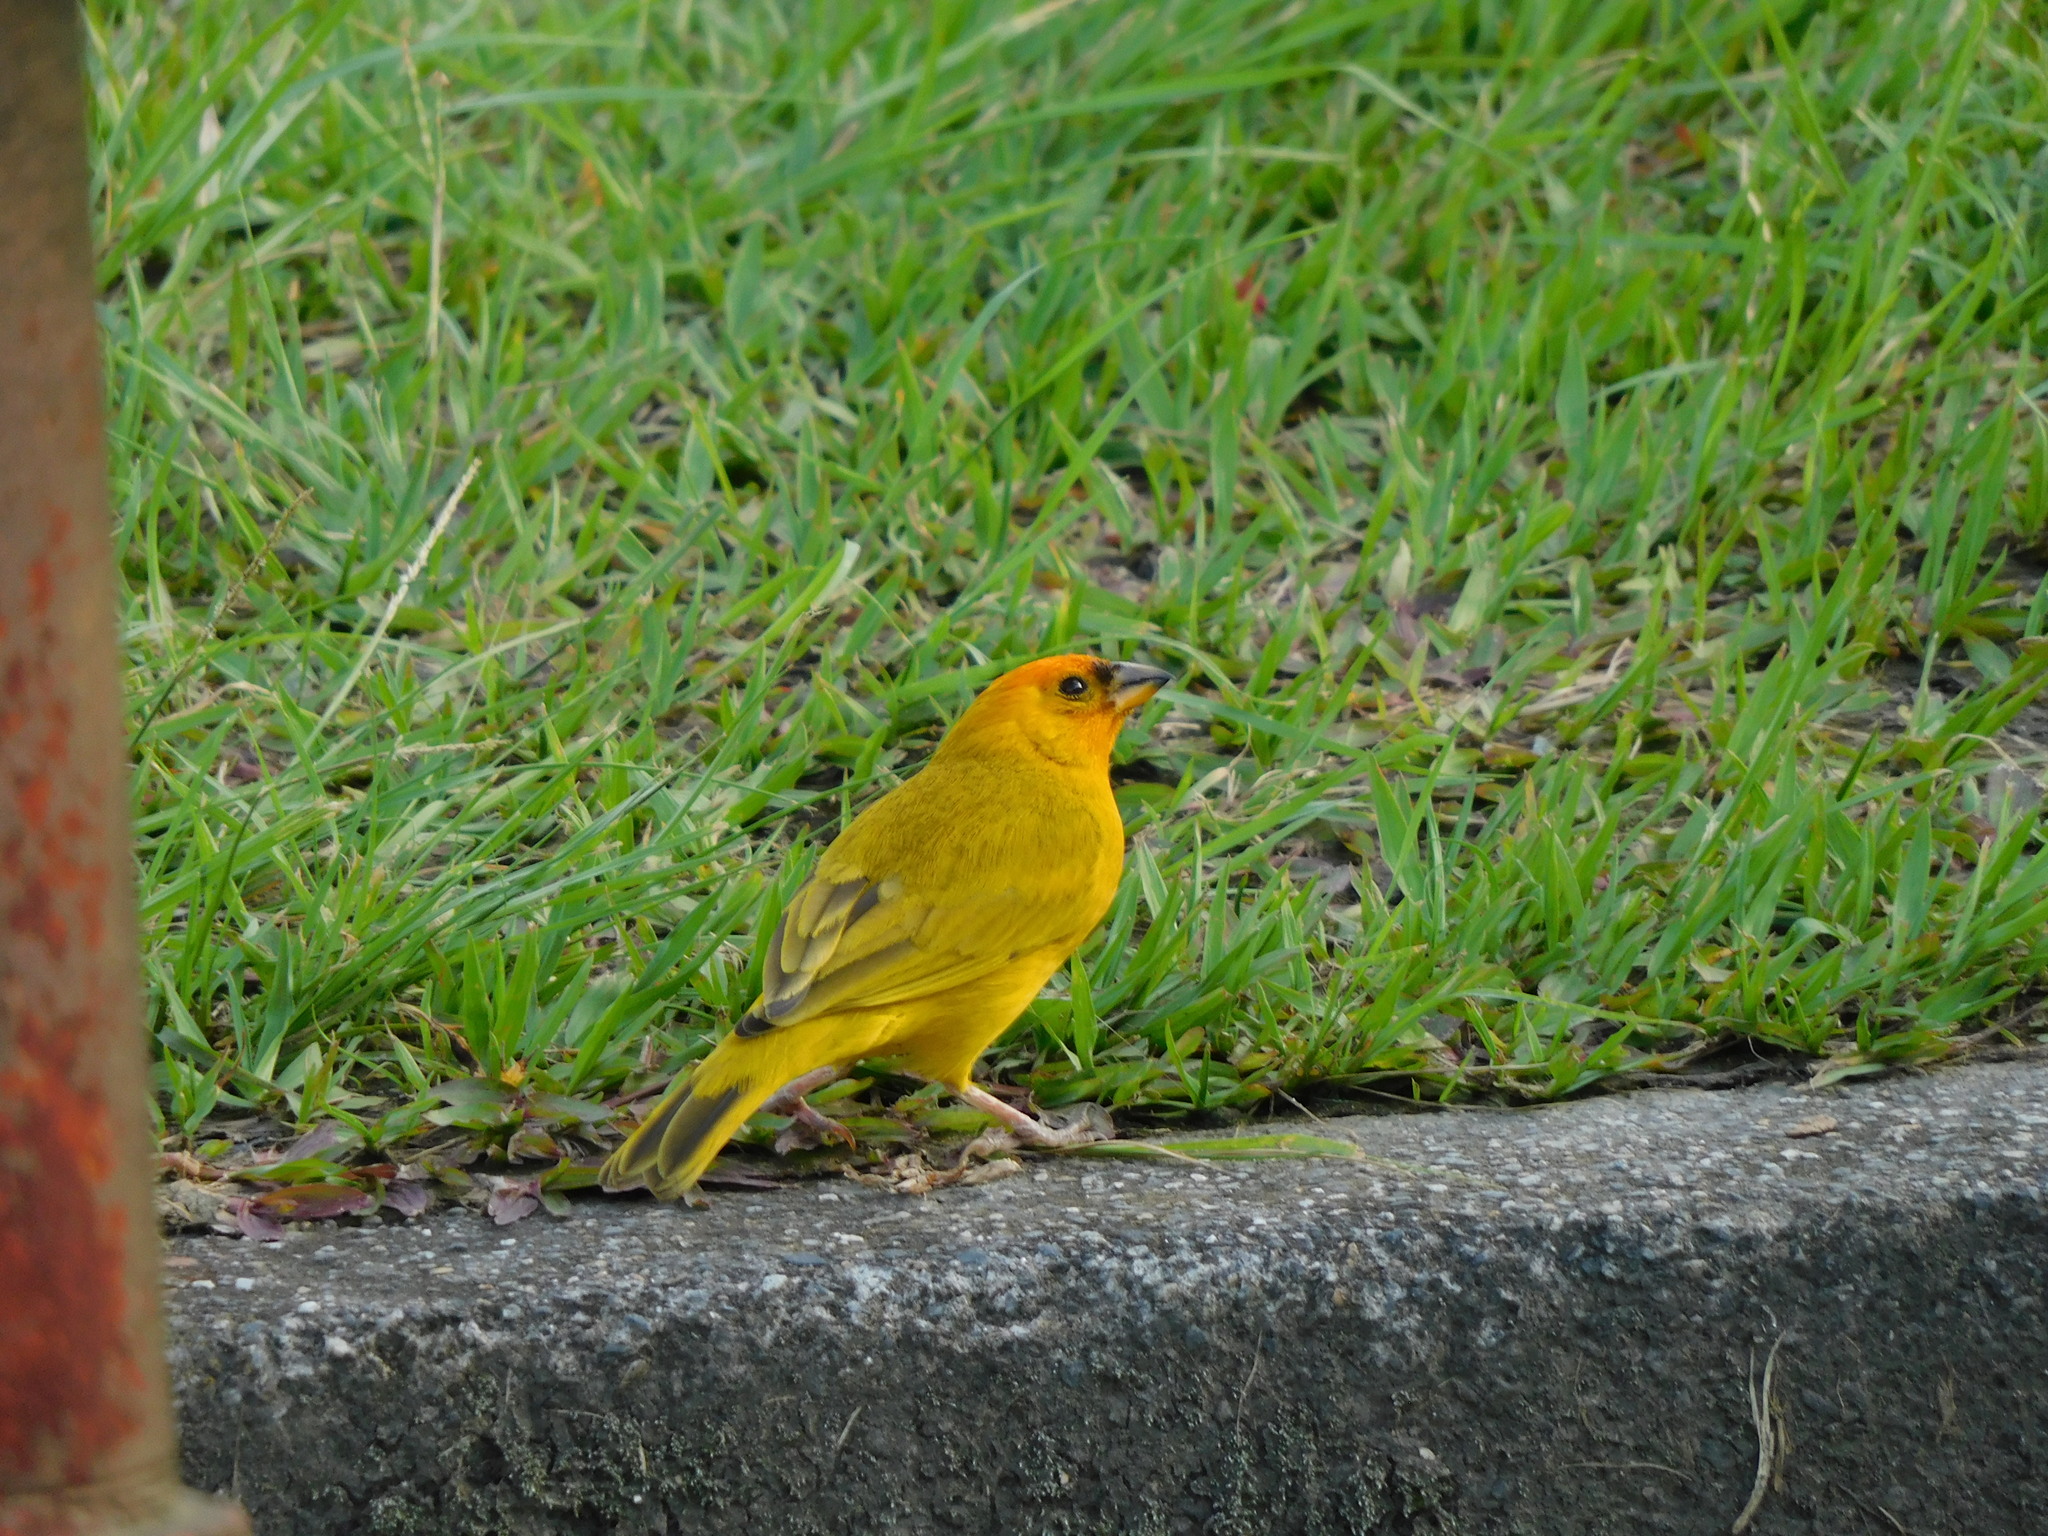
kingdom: Animalia
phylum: Chordata
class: Aves
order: Passeriformes
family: Thraupidae
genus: Sicalis
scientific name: Sicalis flaveola
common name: Saffron finch
